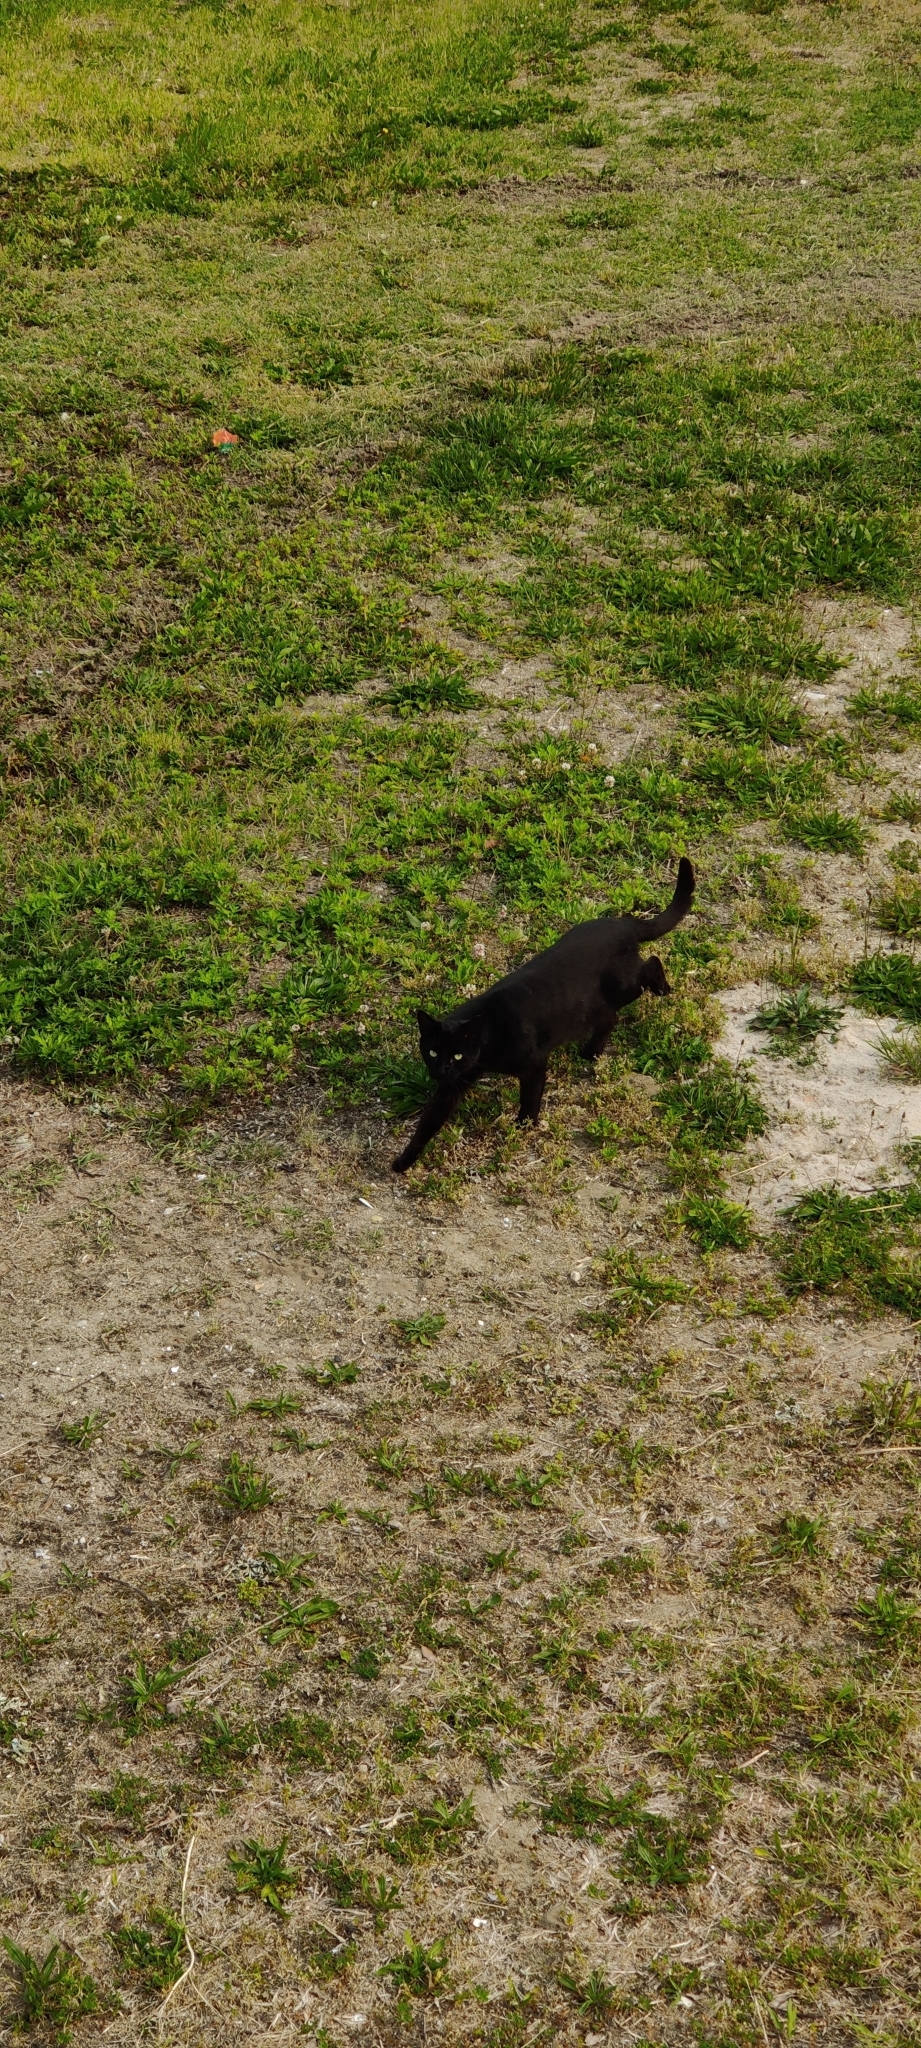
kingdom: Animalia
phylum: Chordata
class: Mammalia
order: Carnivora
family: Felidae
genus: Felis
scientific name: Felis catus
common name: Domestic cat
